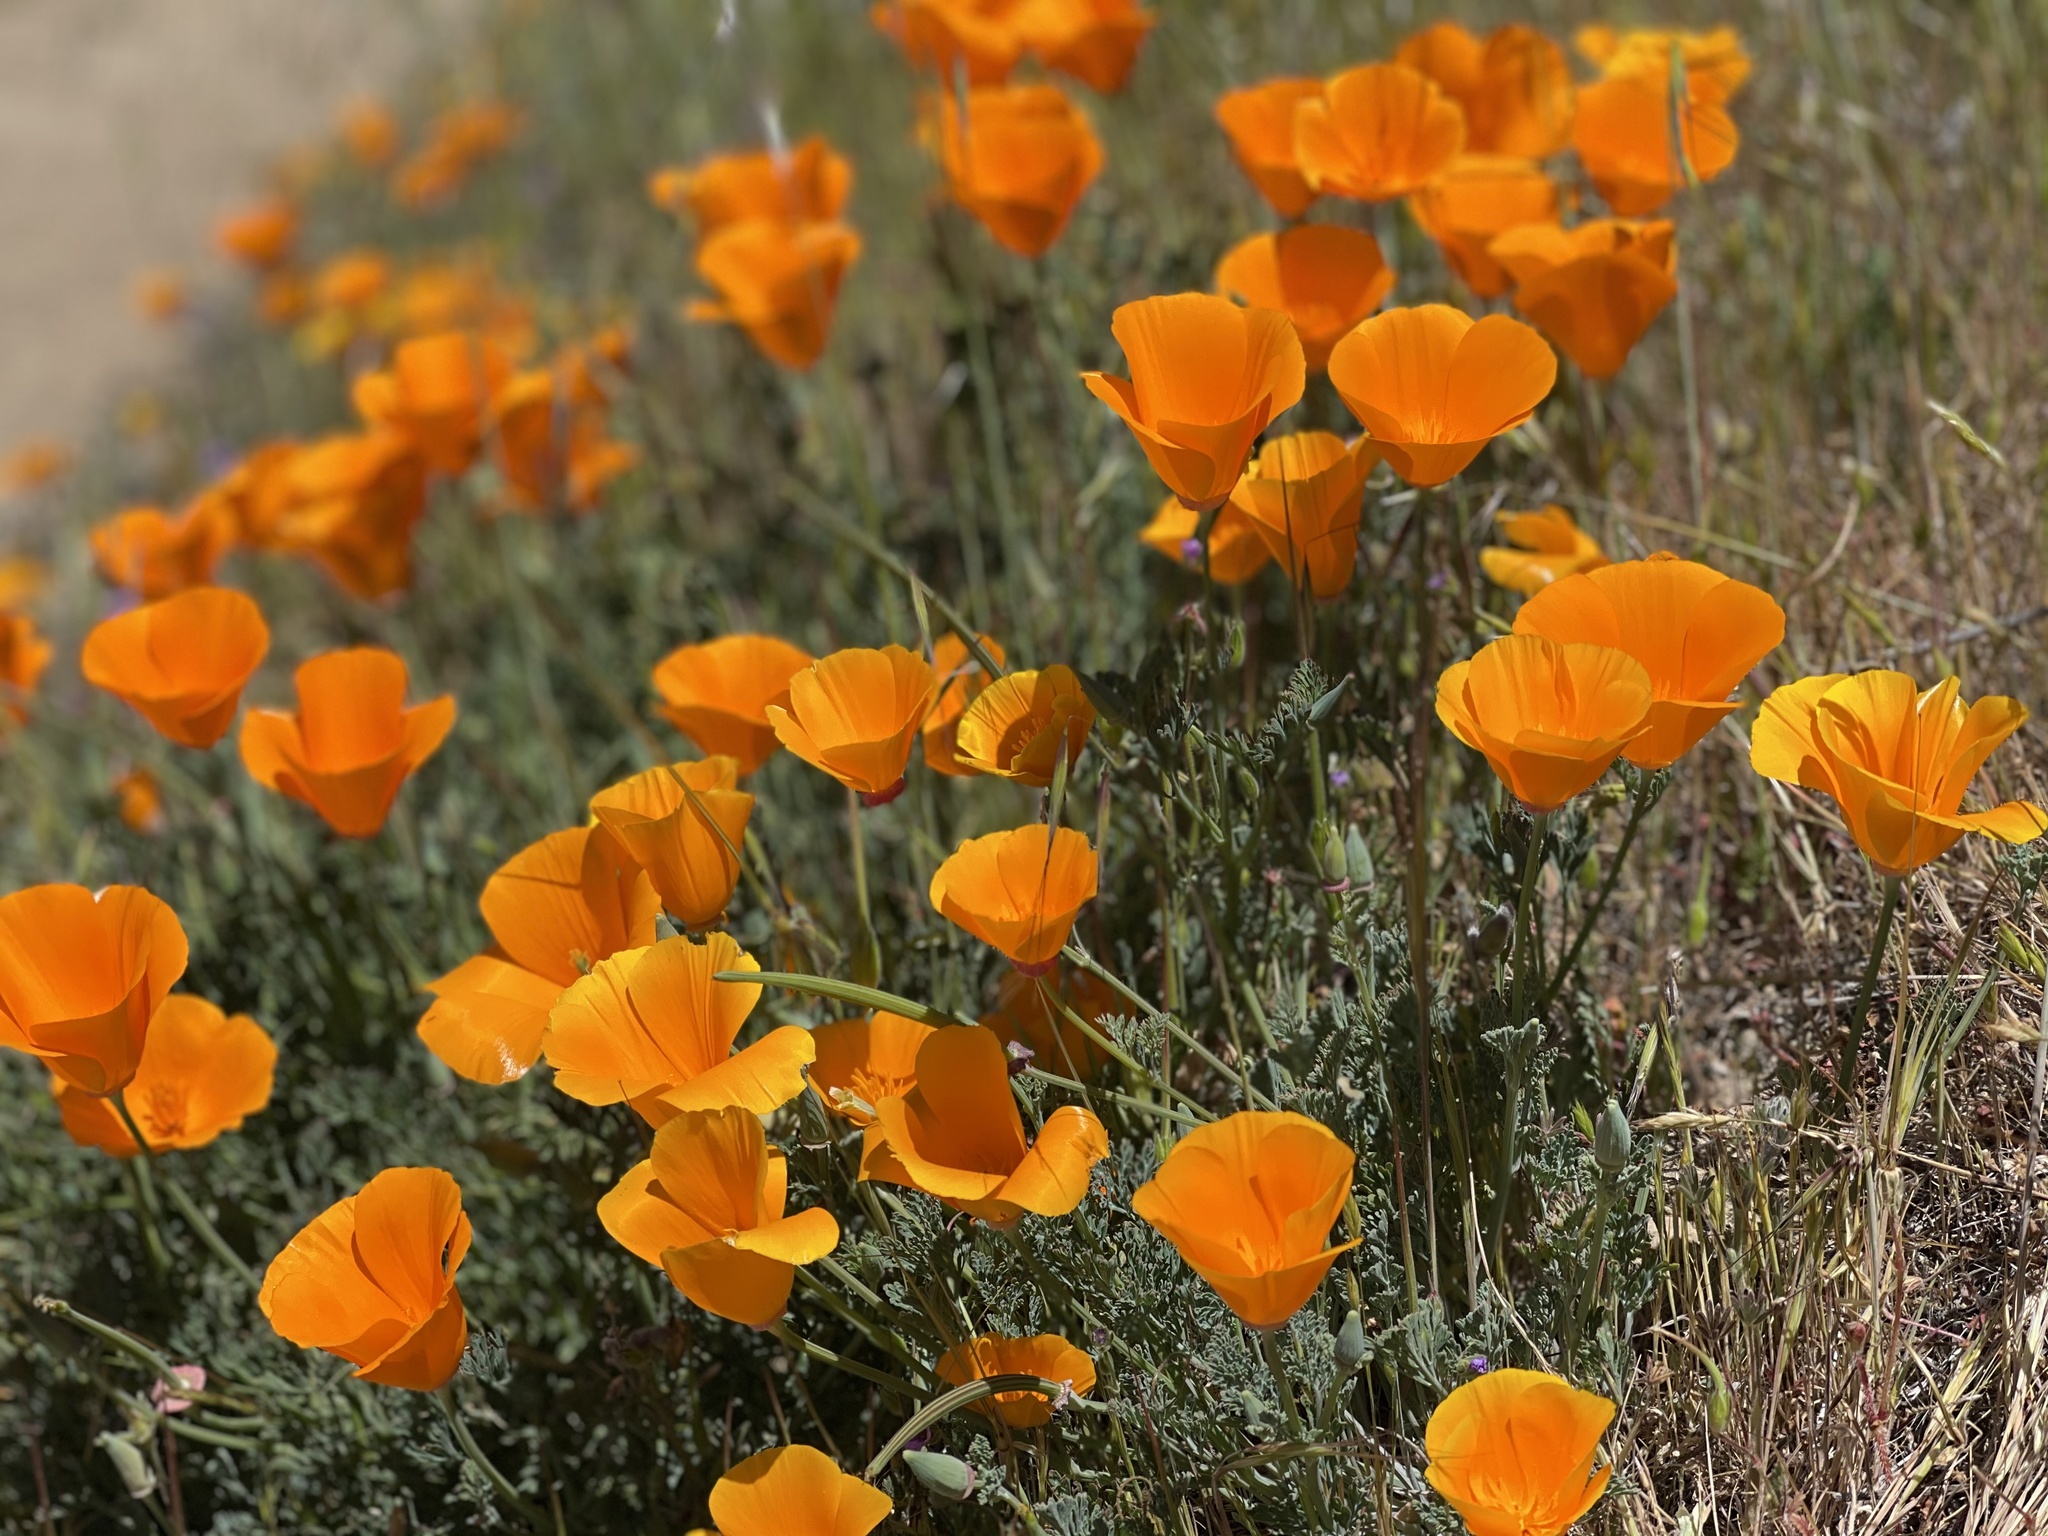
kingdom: Plantae
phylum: Tracheophyta
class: Magnoliopsida
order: Ranunculales
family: Papaveraceae
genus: Eschscholzia
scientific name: Eschscholzia californica
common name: California poppy
